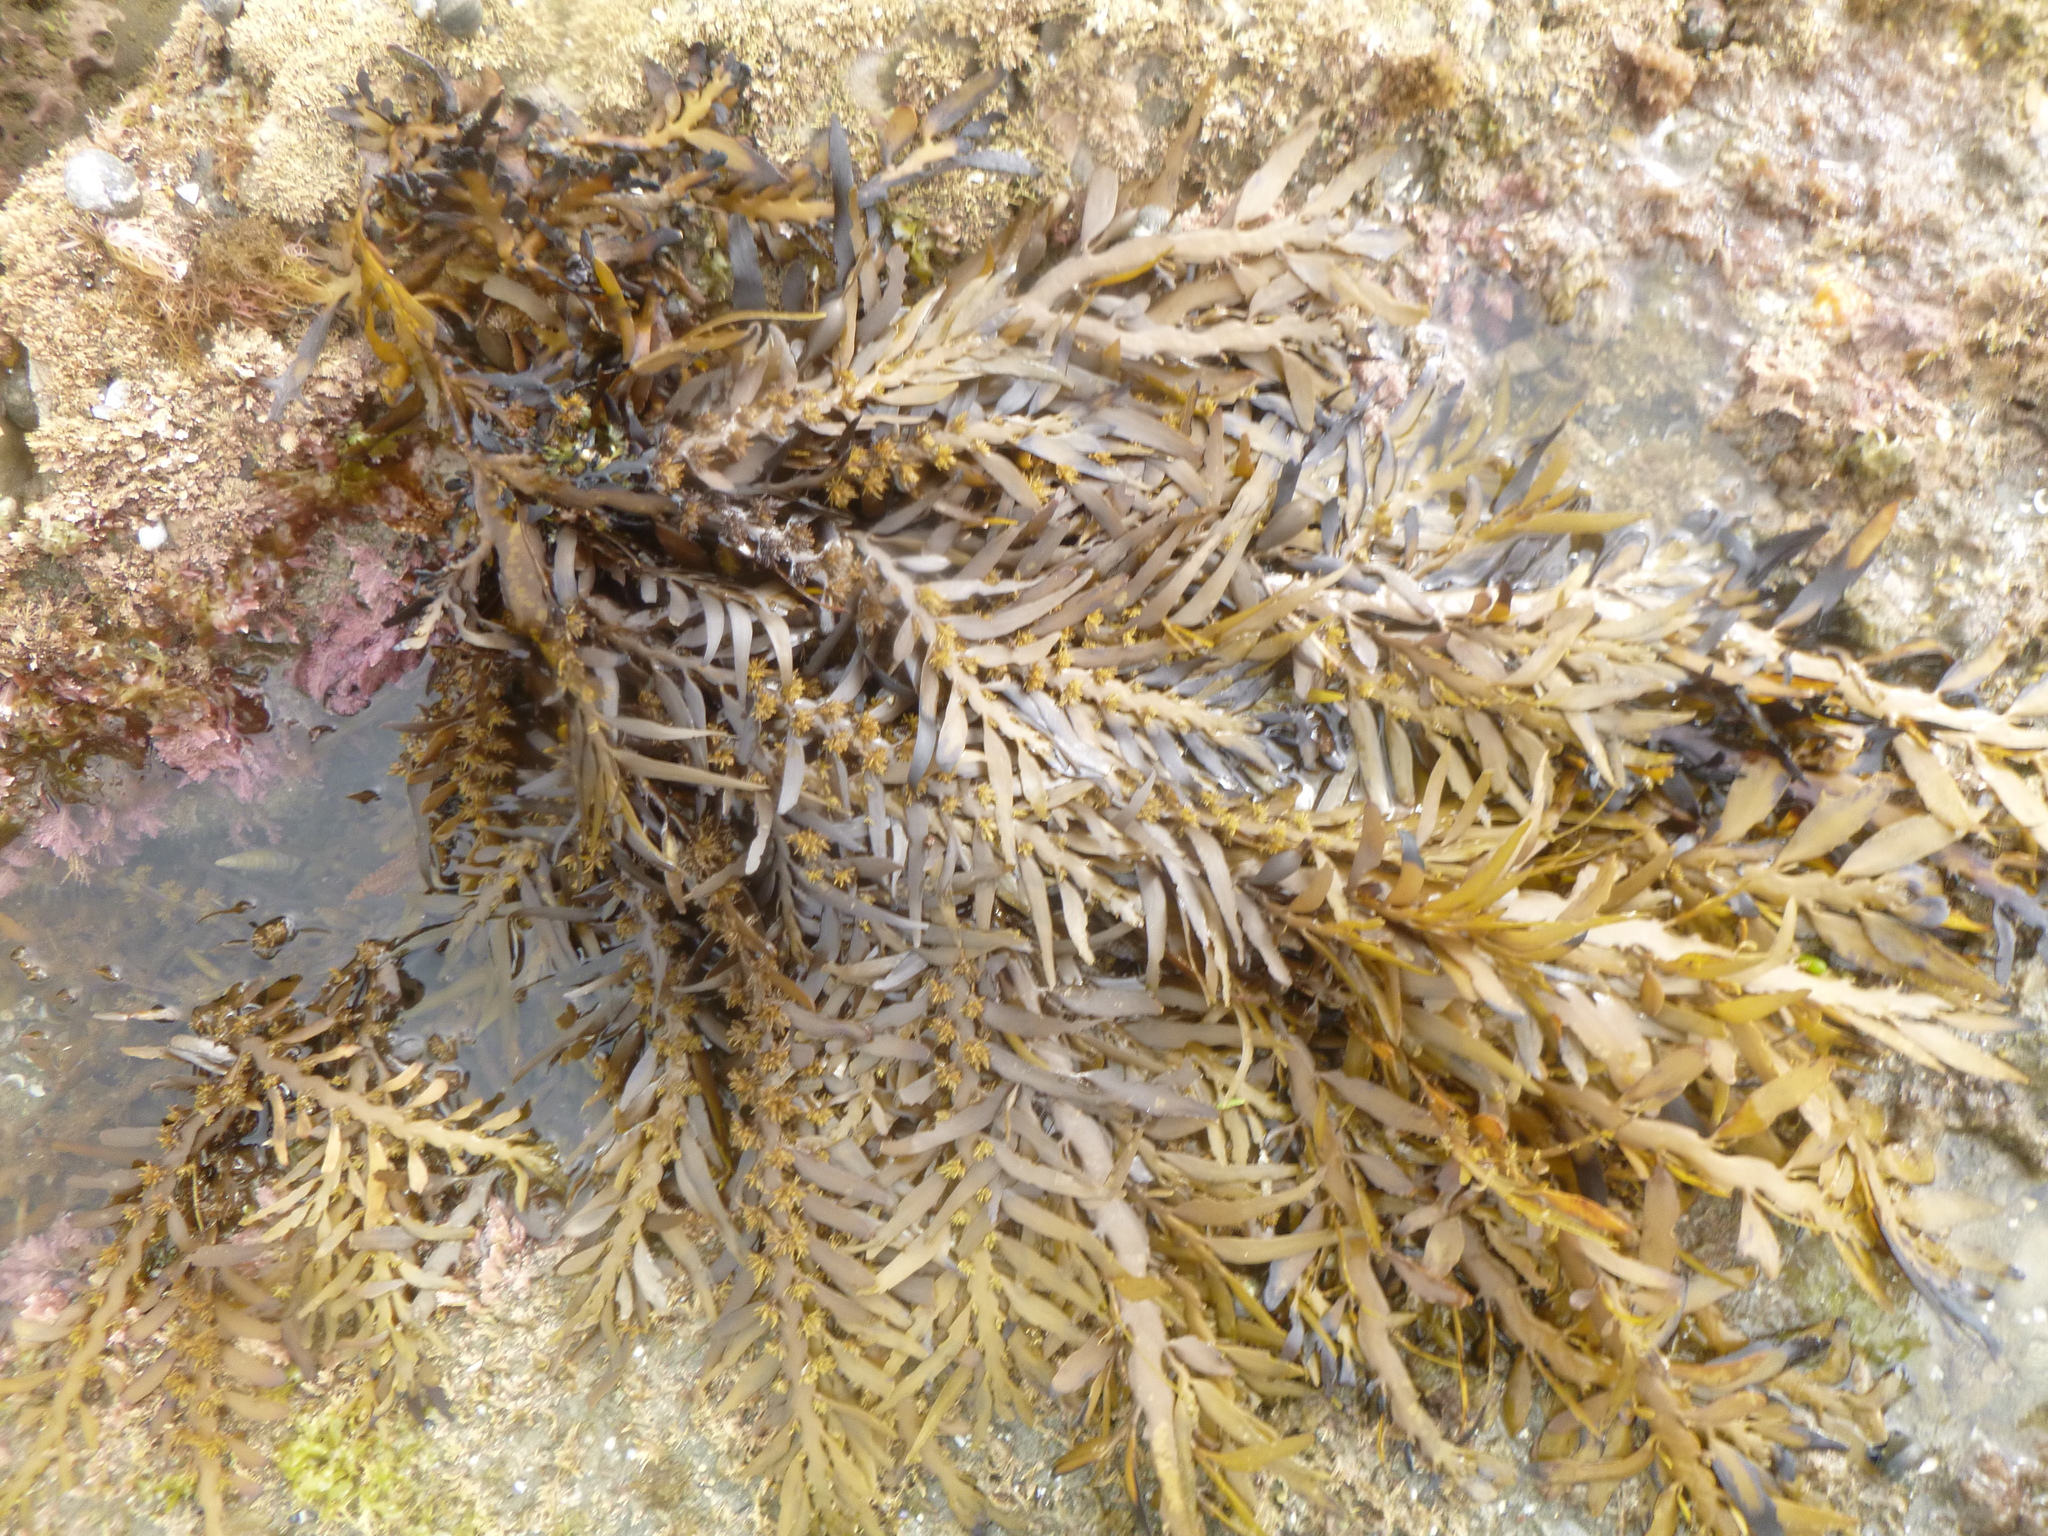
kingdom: Chromista
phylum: Ochrophyta
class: Phaeophyceae
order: Fucales
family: Sargassaceae
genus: Carpophyllum
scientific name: Carpophyllum maschalocarpum
